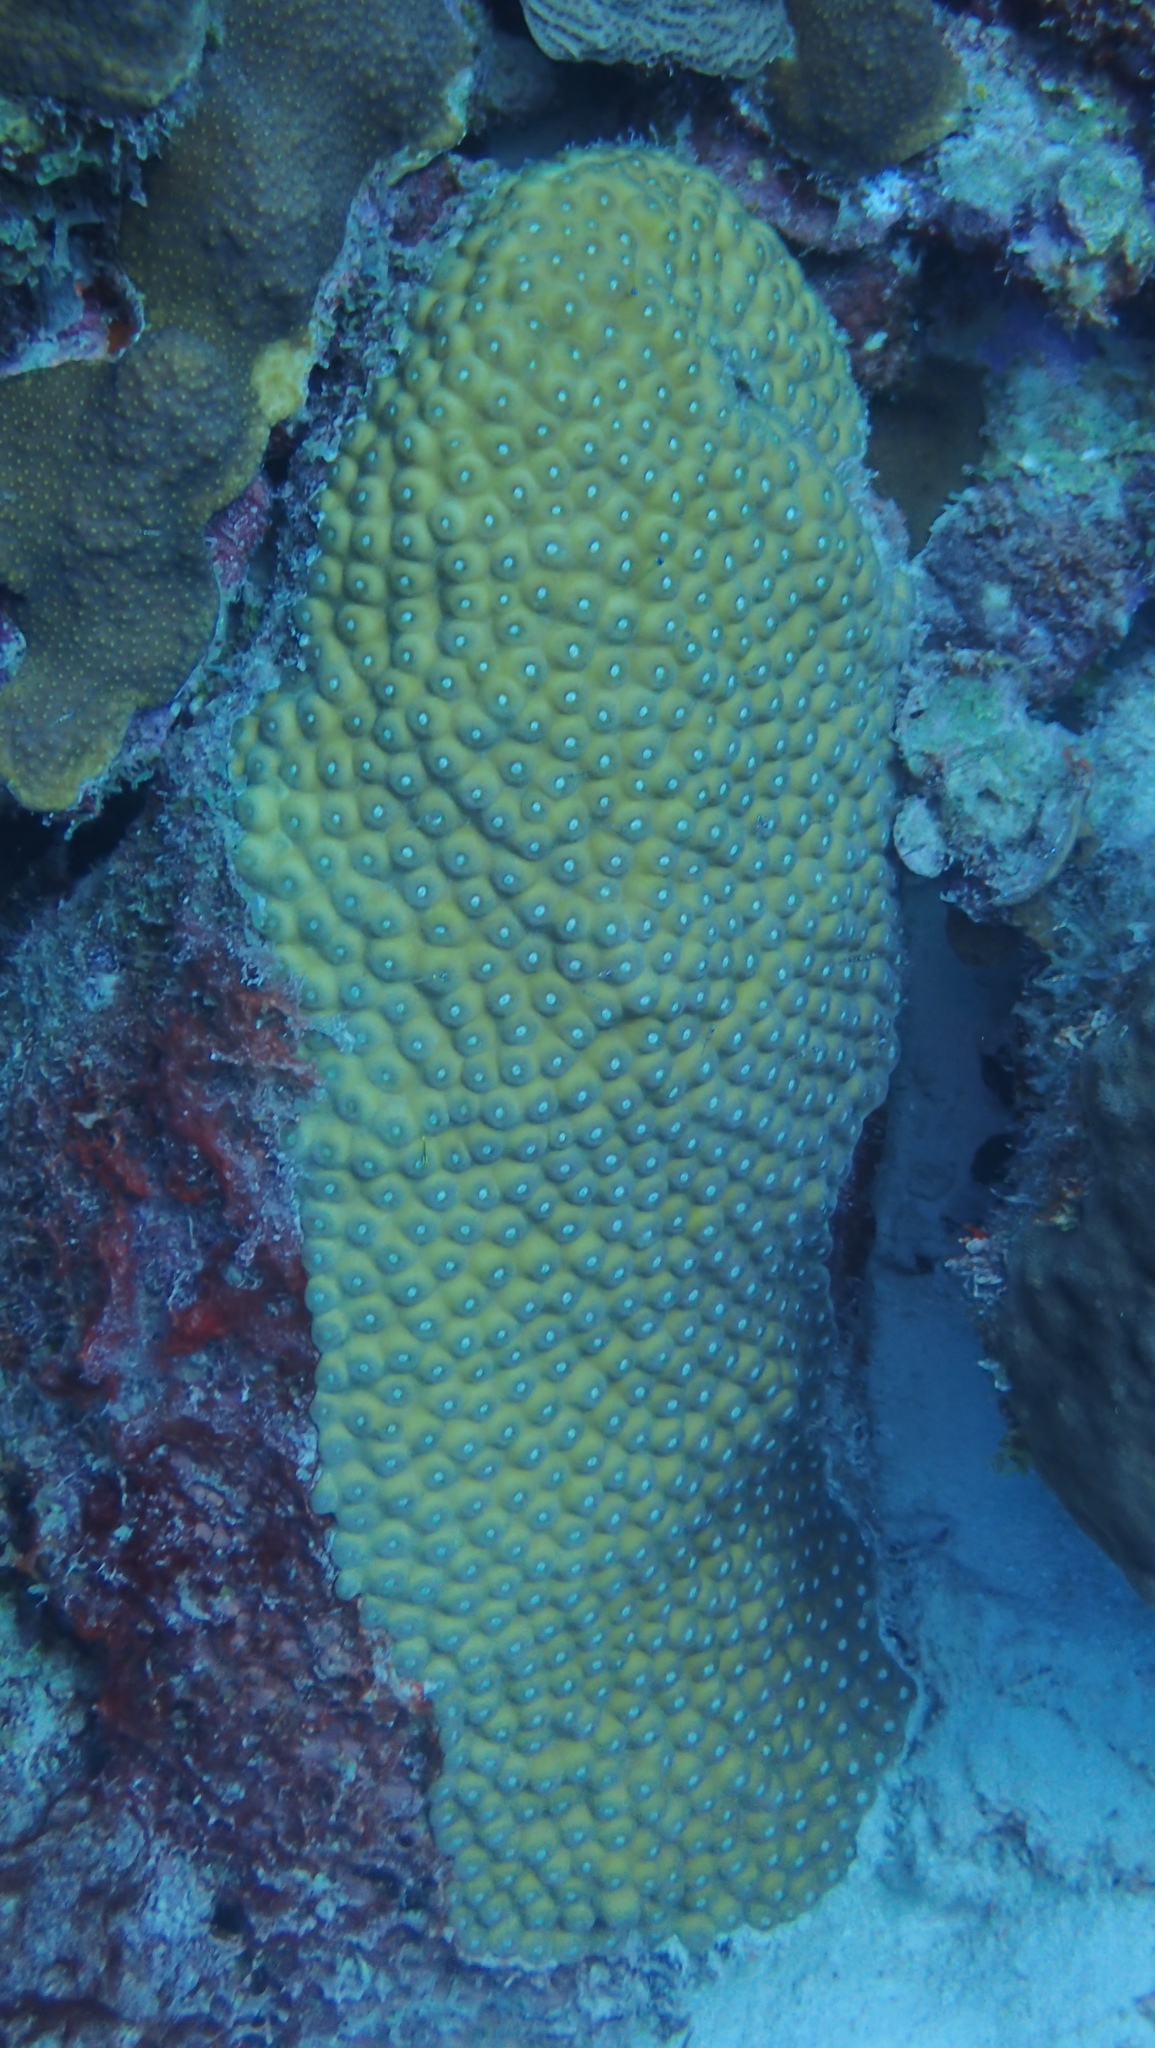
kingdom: Animalia
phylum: Cnidaria
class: Anthozoa
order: Scleractinia
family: Montastraeidae
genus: Montastraea
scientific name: Montastraea cavernosa
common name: Great star coral
